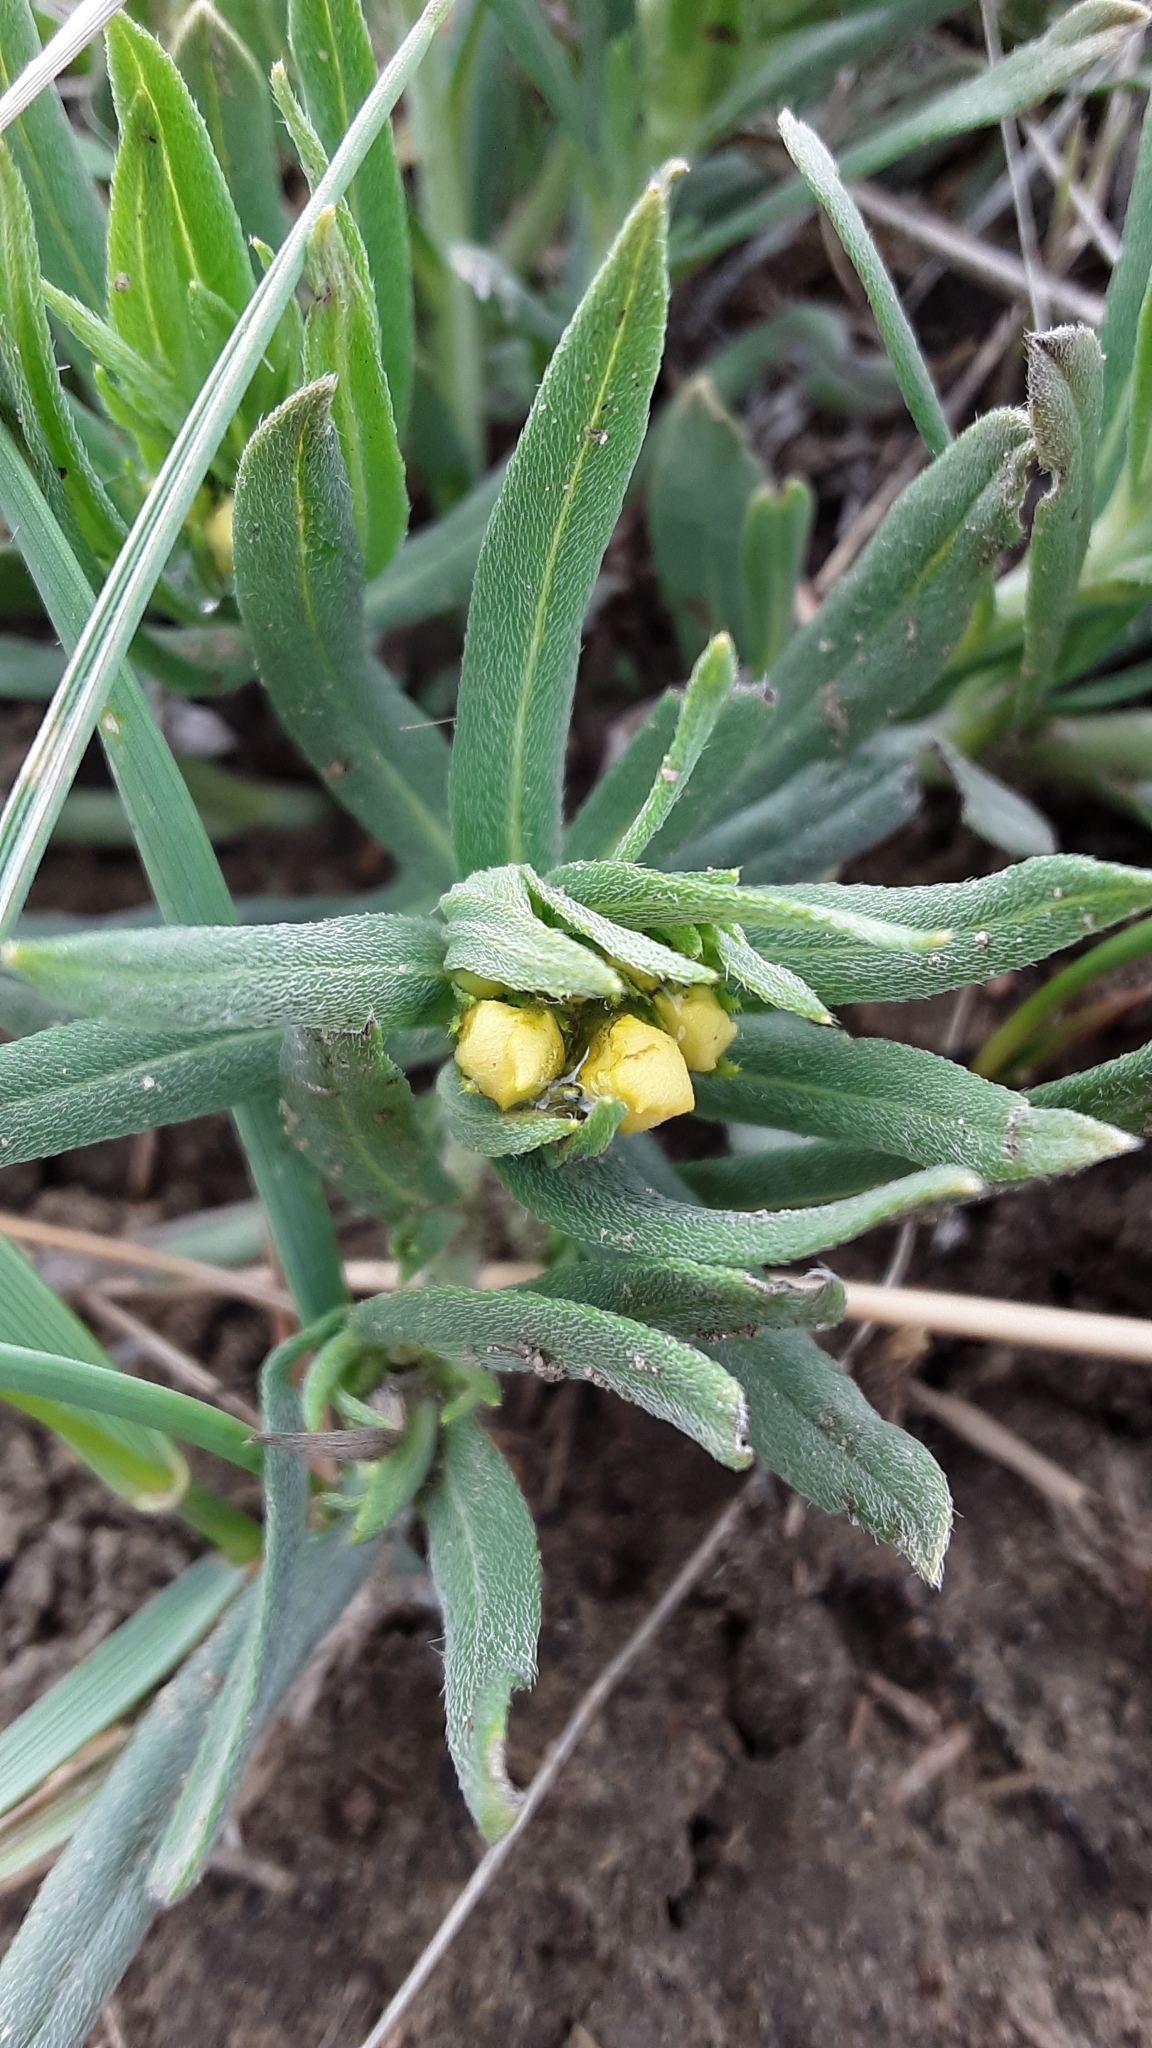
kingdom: Plantae
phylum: Tracheophyta
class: Magnoliopsida
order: Boraginales
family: Boraginaceae
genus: Lithospermum
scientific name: Lithospermum incisum
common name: Fringed gromwell
